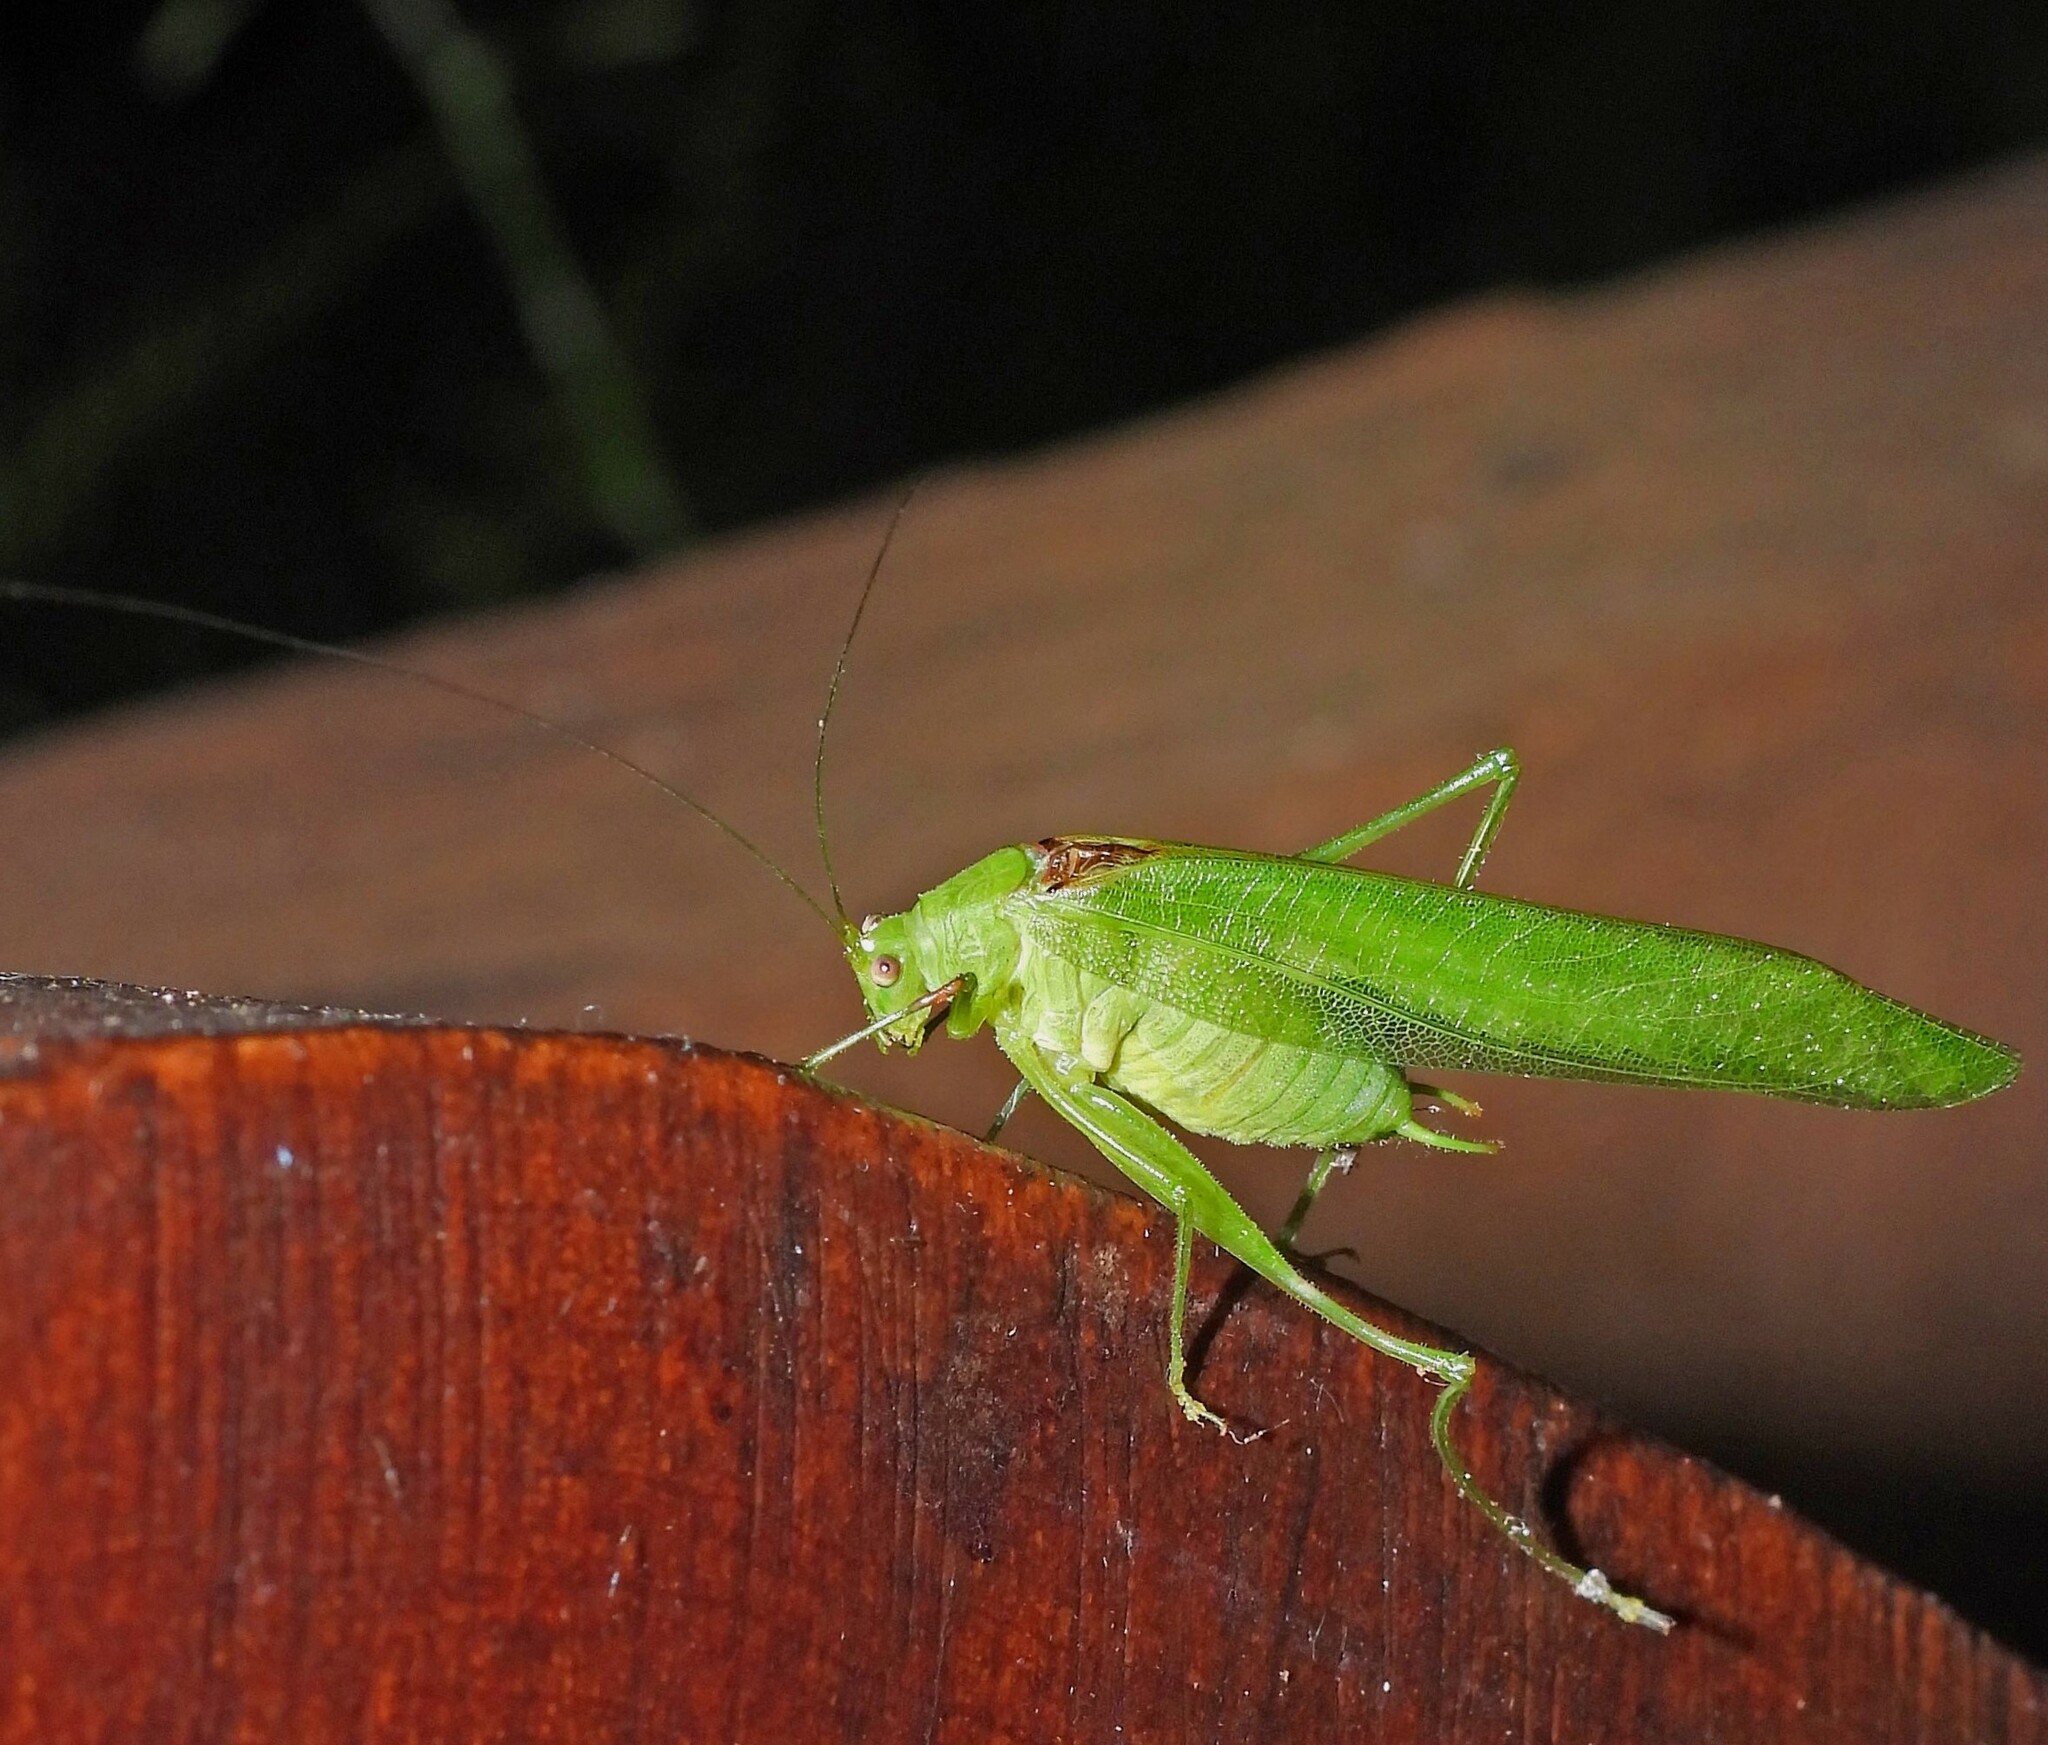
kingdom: Animalia
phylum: Arthropoda
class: Insecta
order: Orthoptera
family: Tettigoniidae
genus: Anaulacomera
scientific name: Anaulacomera argentina
